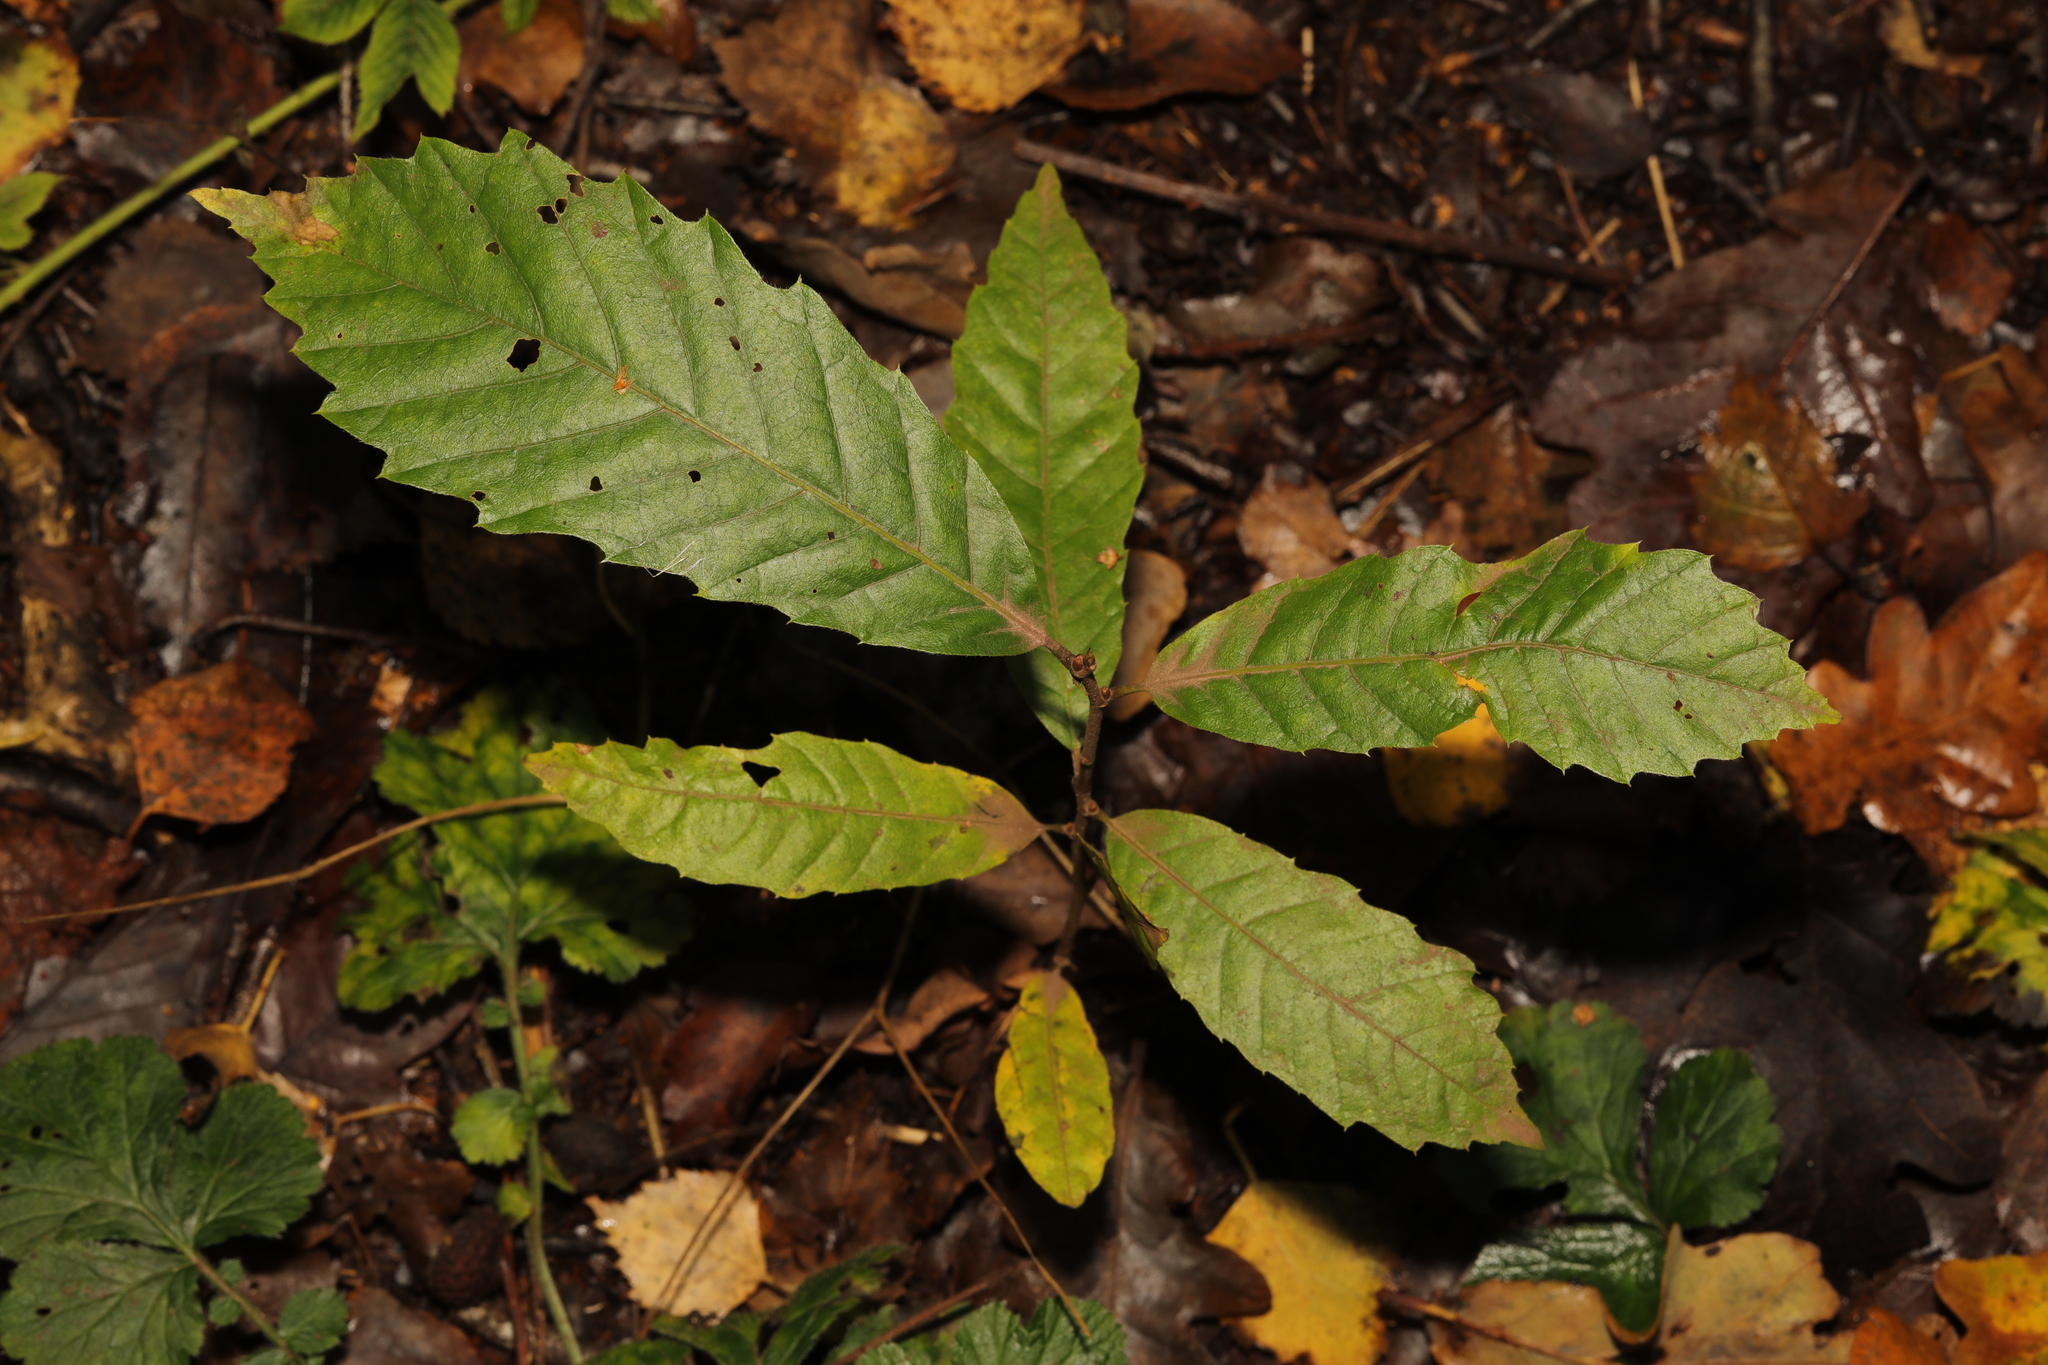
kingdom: Plantae
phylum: Tracheophyta
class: Magnoliopsida
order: Fagales
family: Fagaceae
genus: Castanea
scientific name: Castanea sativa
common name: Sweet chestnut
